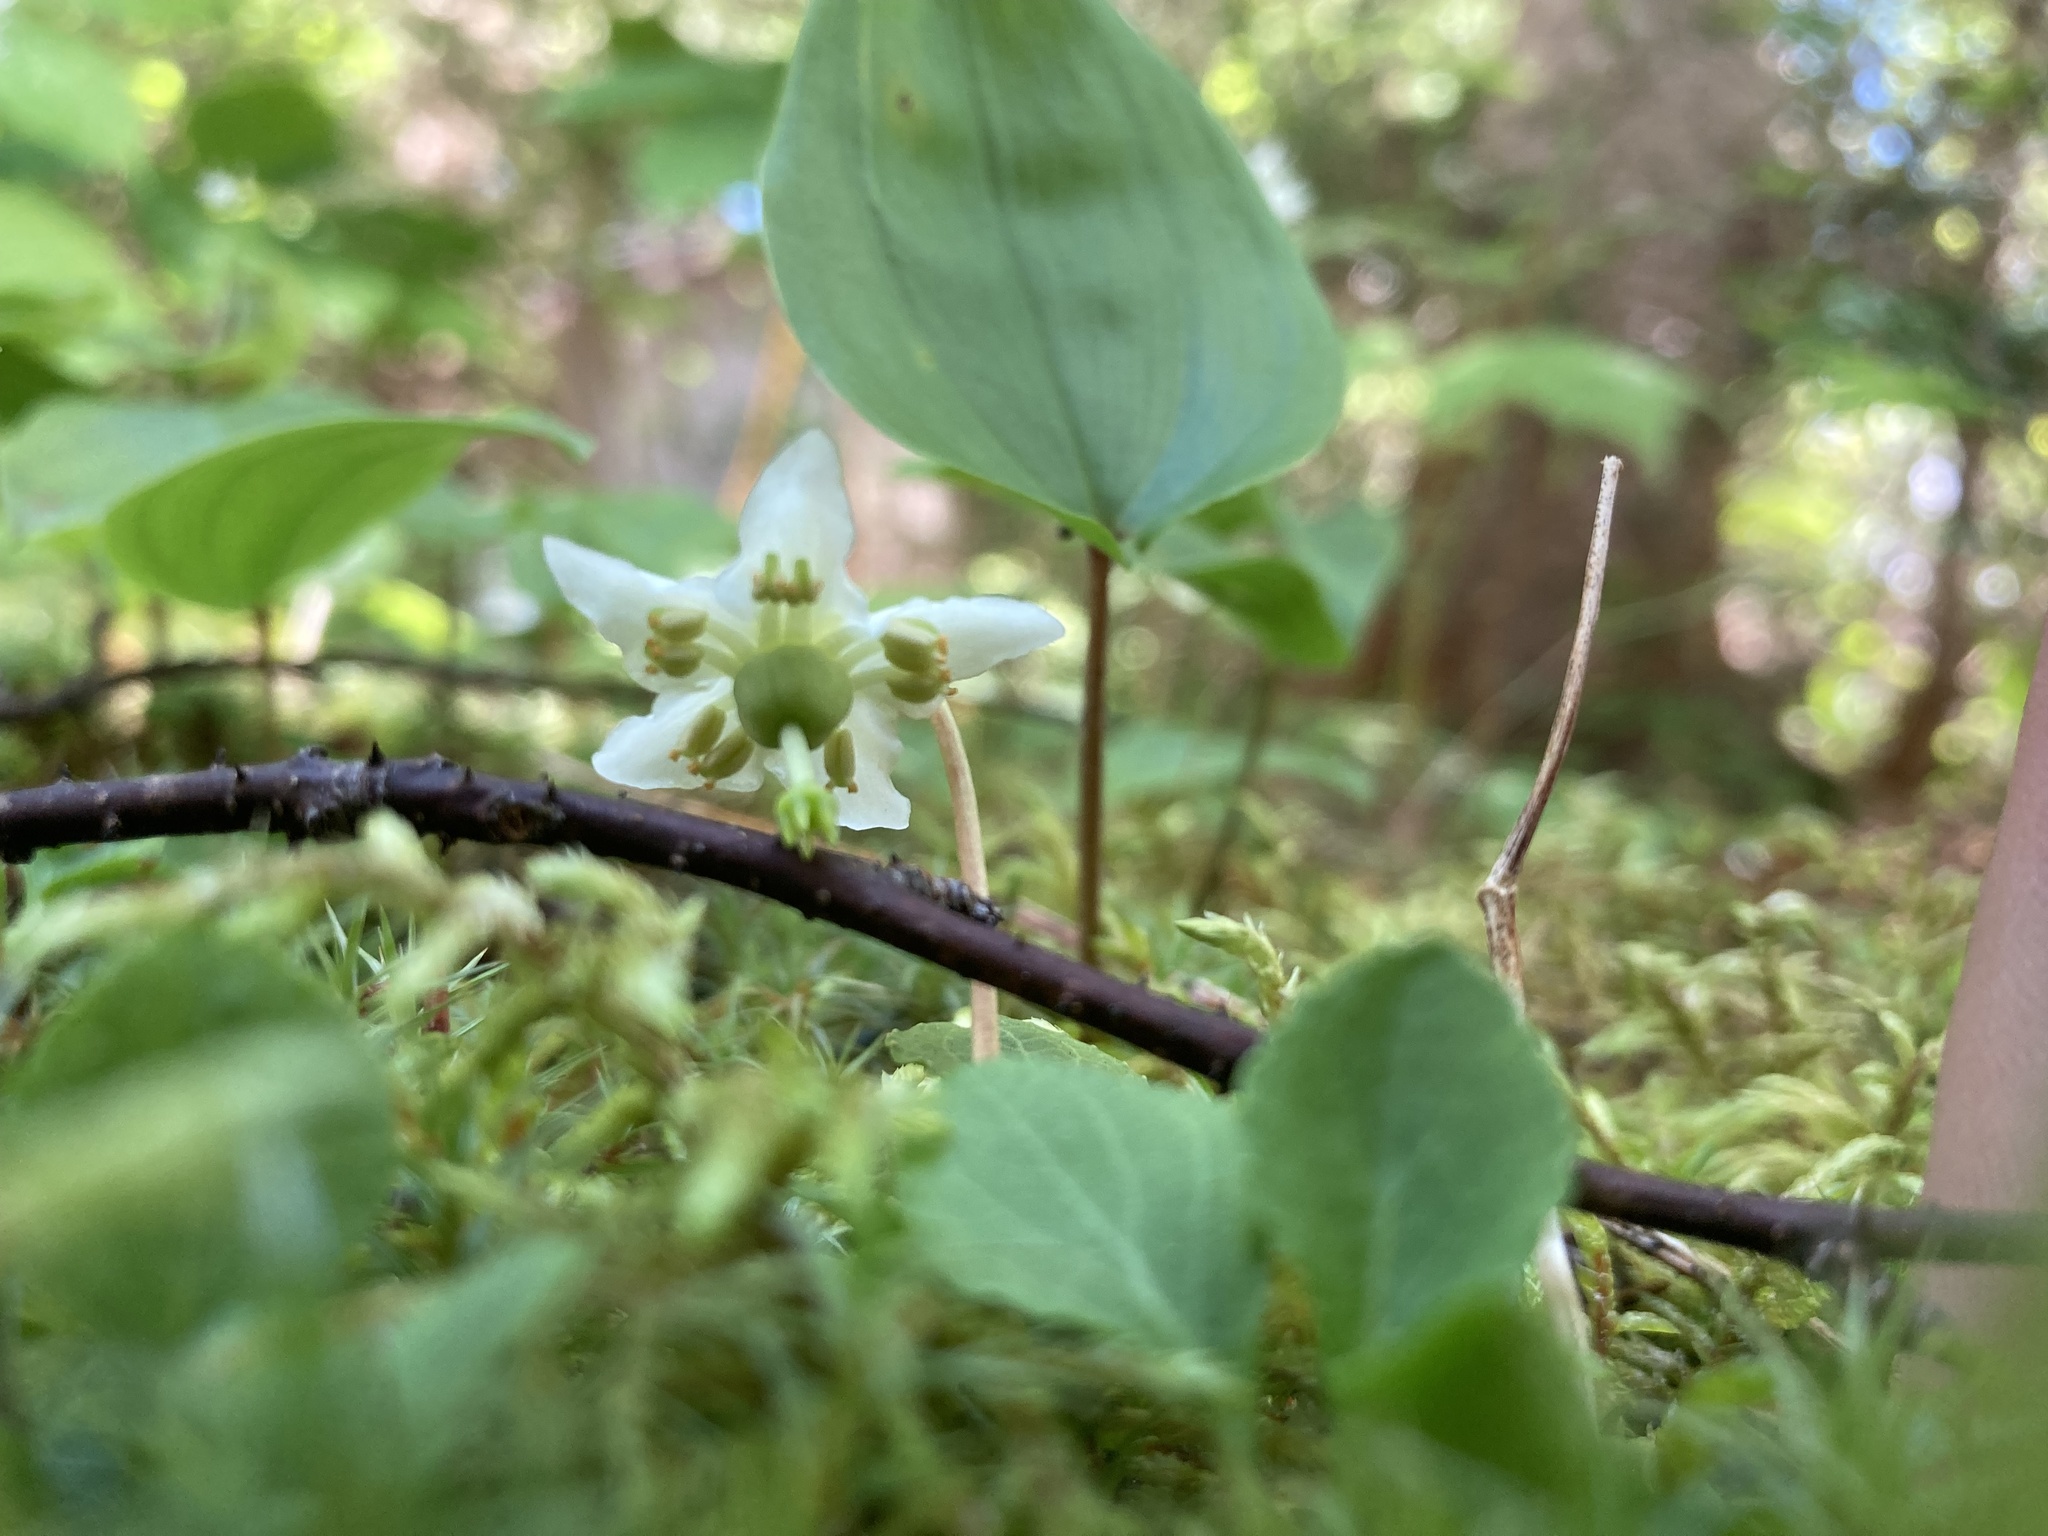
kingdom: Plantae
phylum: Tracheophyta
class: Magnoliopsida
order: Ericales
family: Ericaceae
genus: Moneses
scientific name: Moneses uniflora
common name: One-flowered wintergreen
